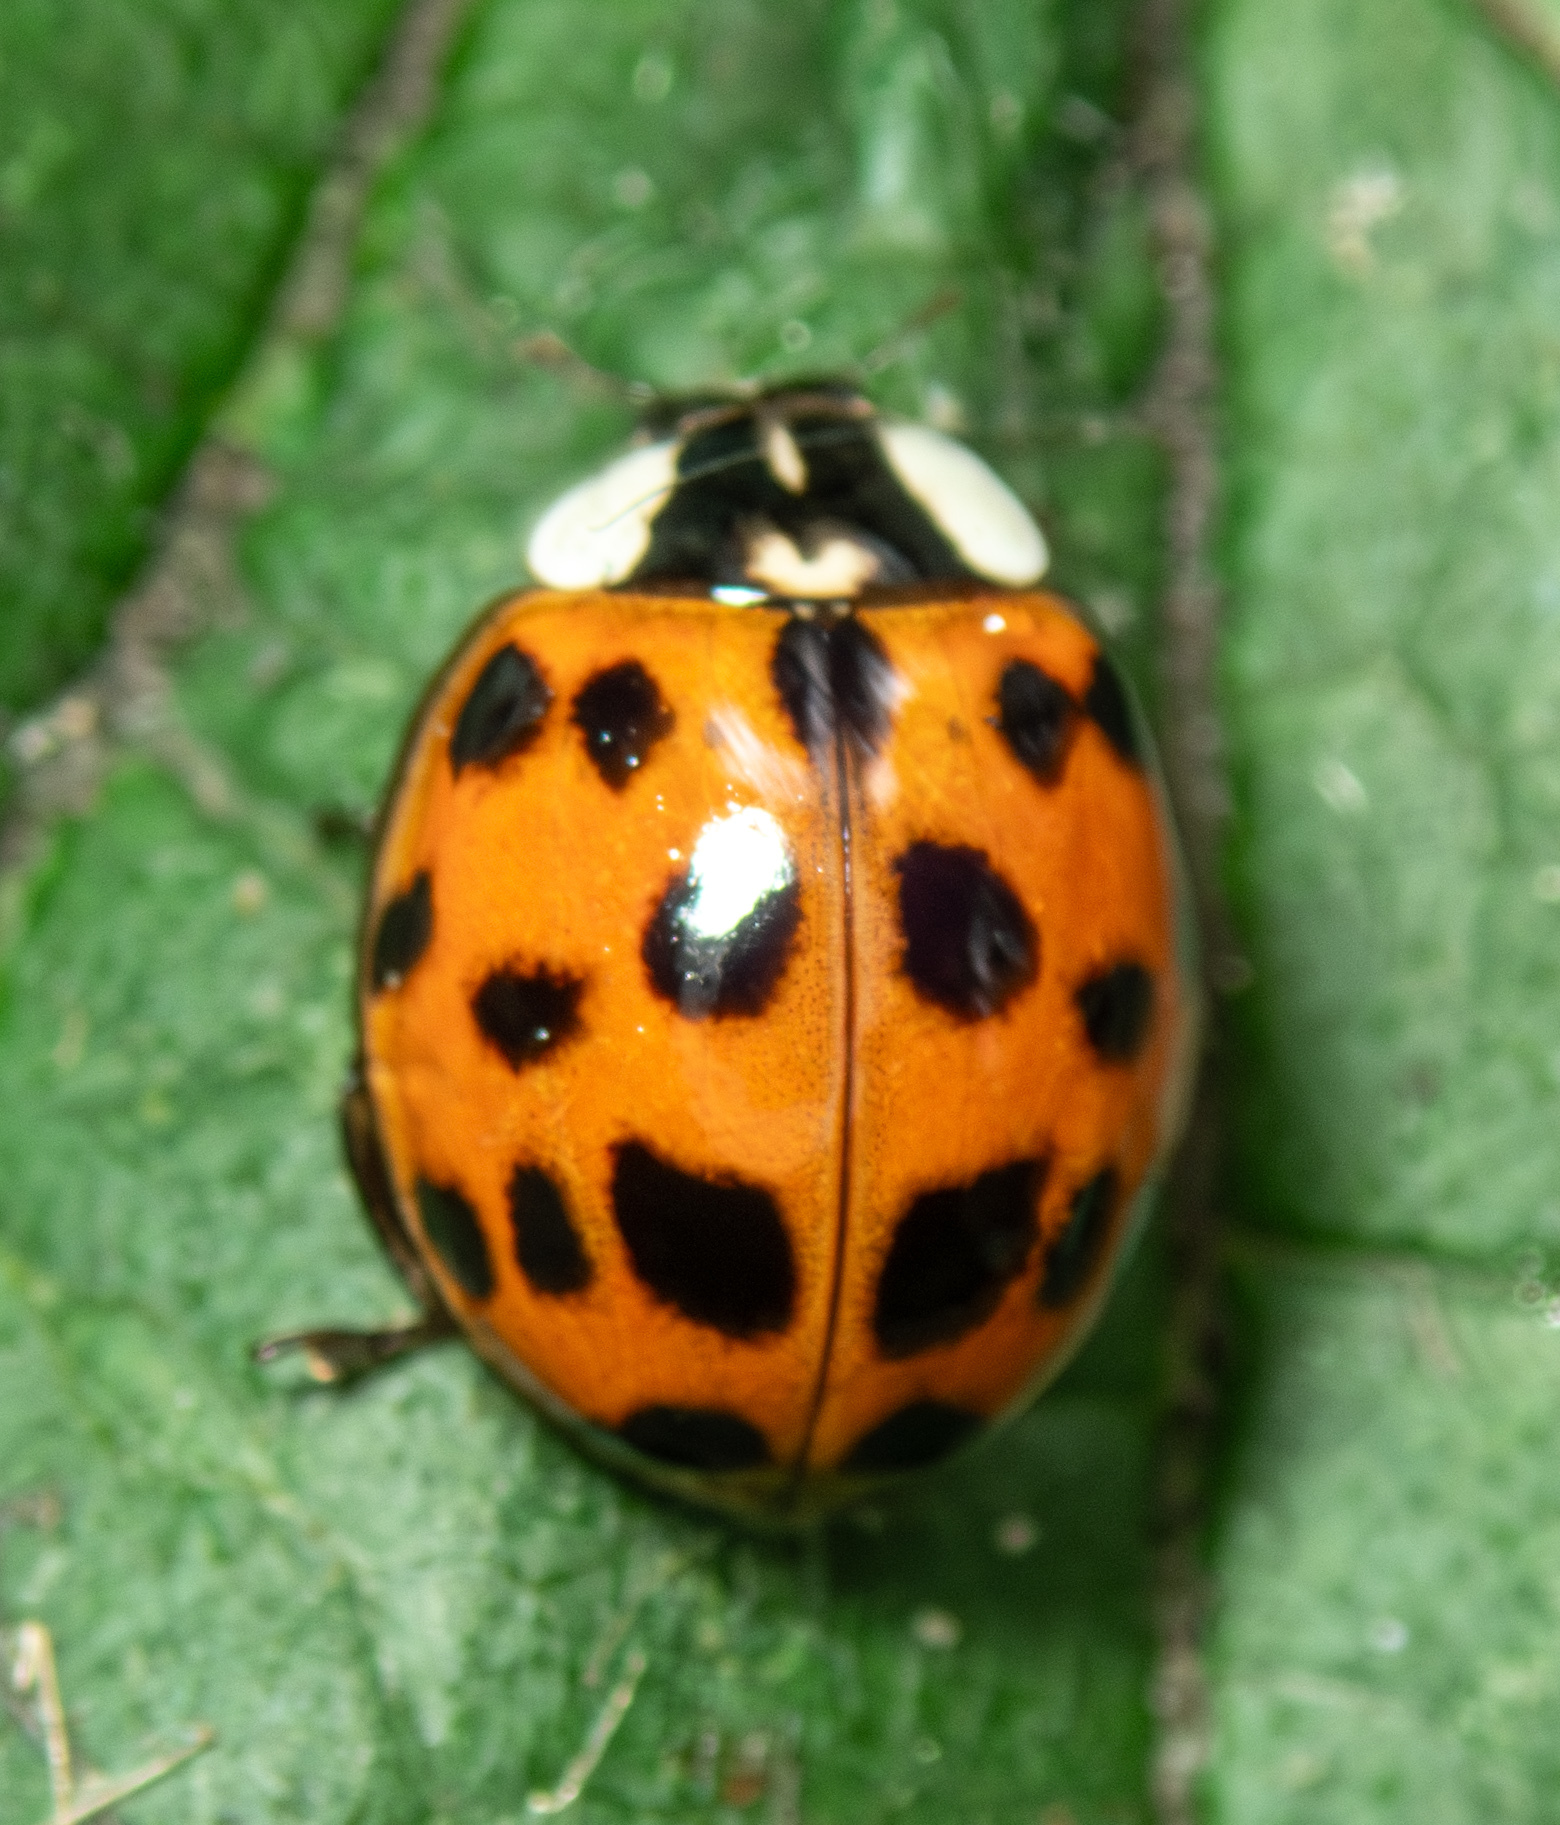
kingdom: Animalia
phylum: Arthropoda
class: Insecta
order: Coleoptera
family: Coccinellidae
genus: Harmonia
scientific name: Harmonia axyridis
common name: Harlequin ladybird
